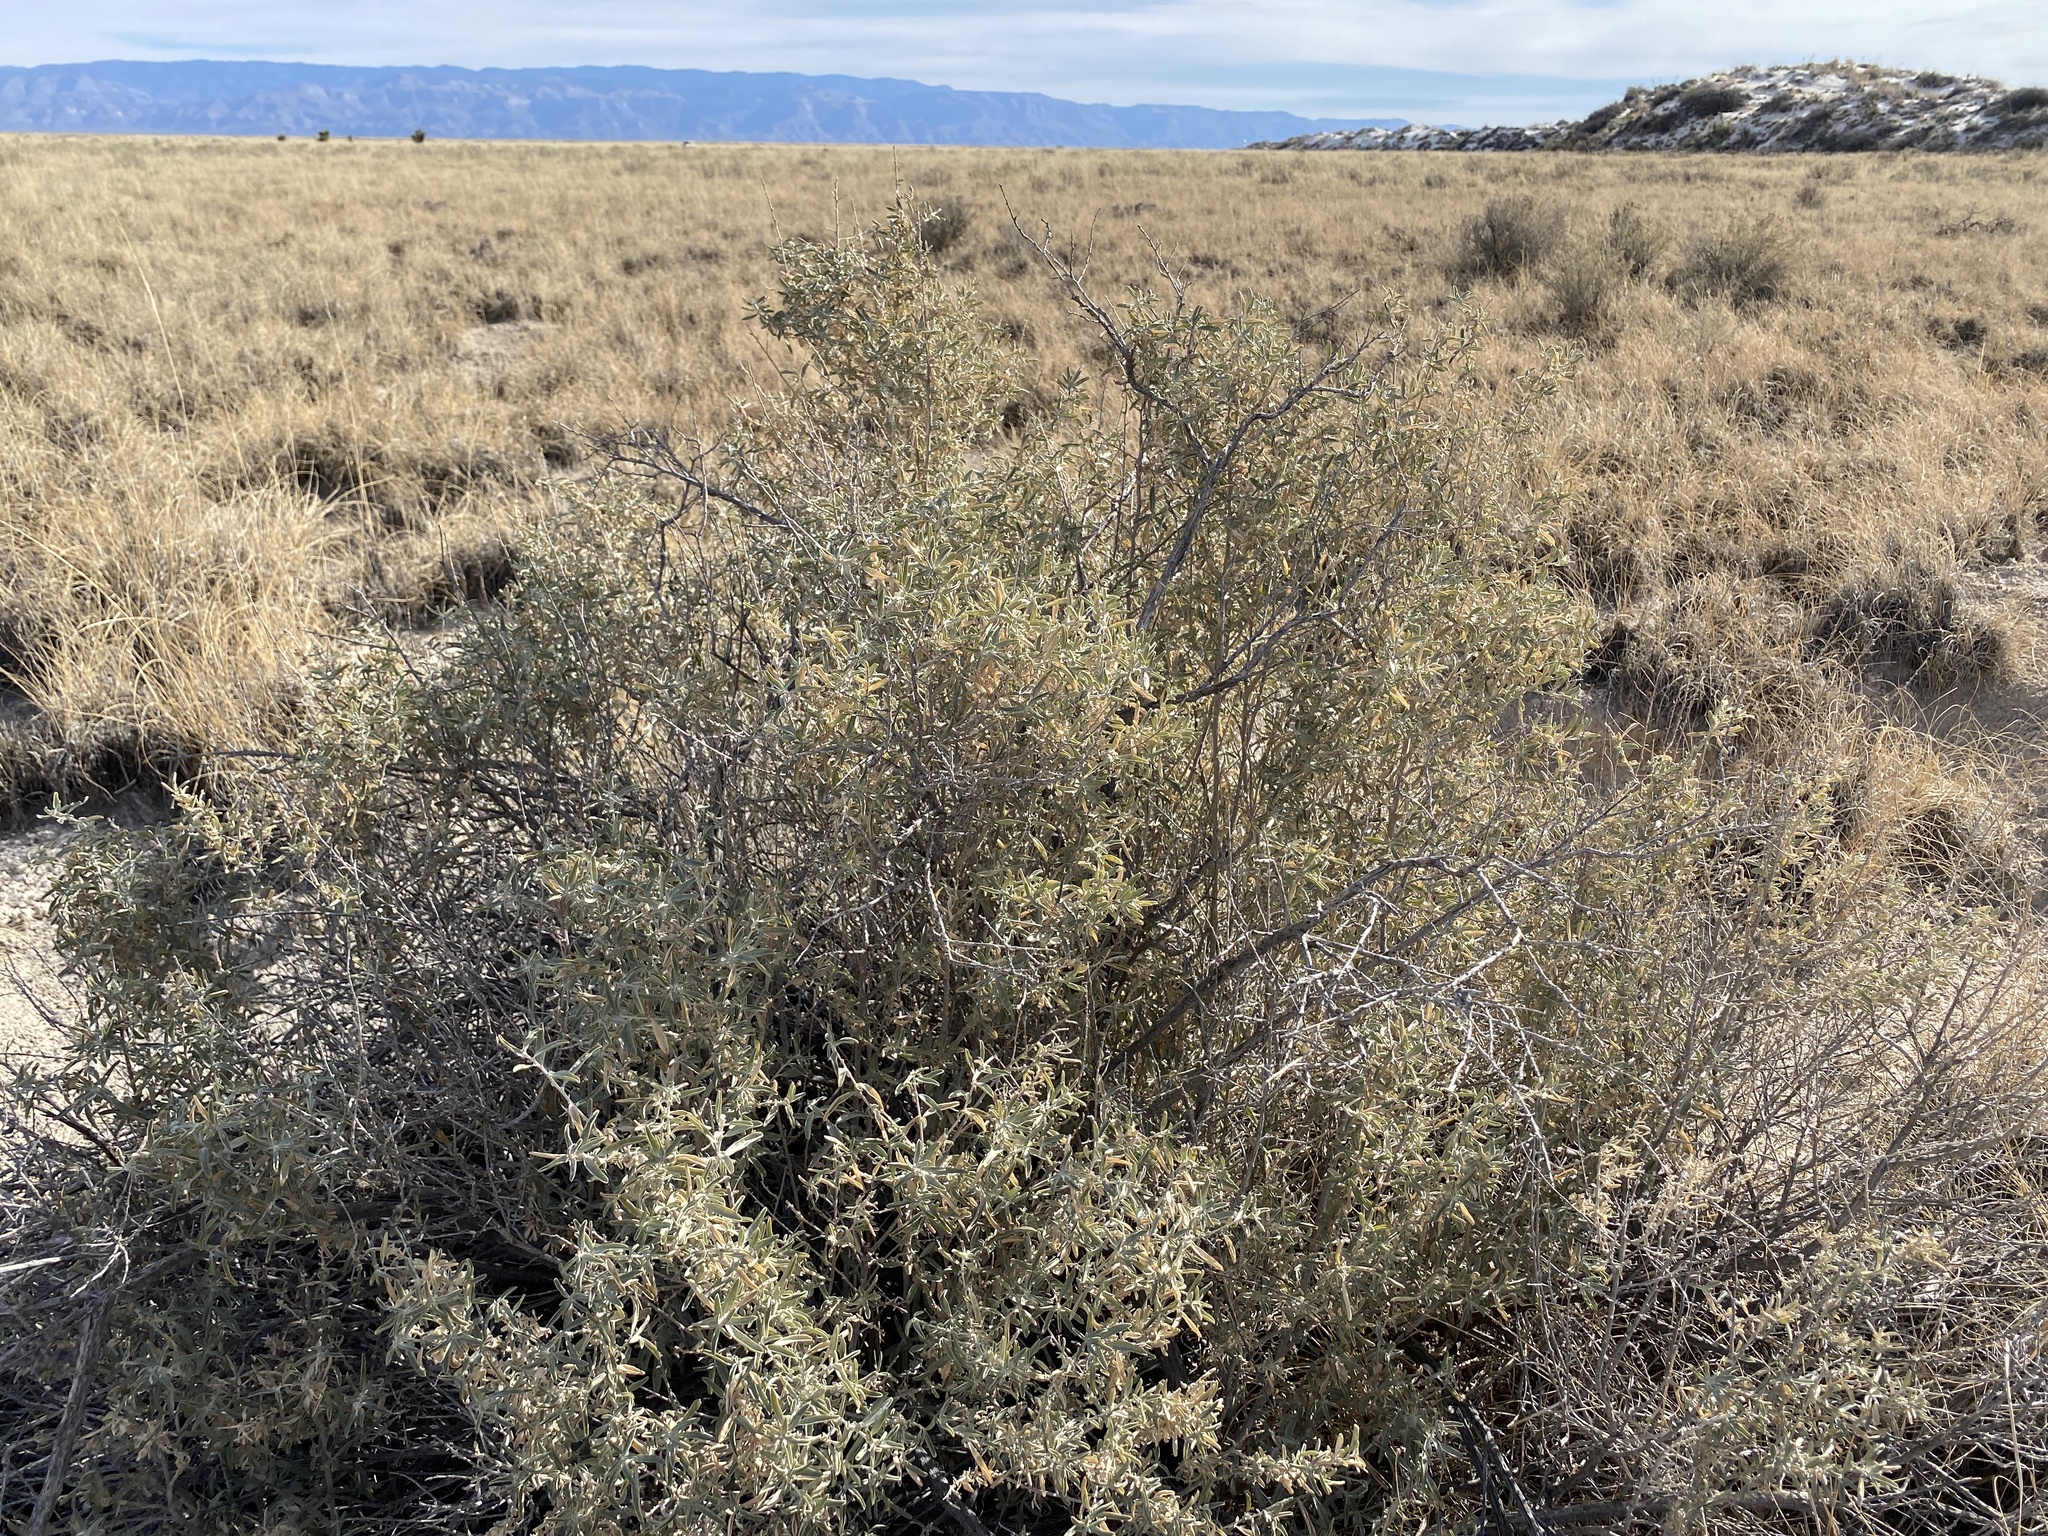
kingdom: Plantae
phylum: Tracheophyta
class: Magnoliopsida
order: Caryophyllales
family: Amaranthaceae
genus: Atriplex
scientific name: Atriplex canescens
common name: Four-wing saltbush
